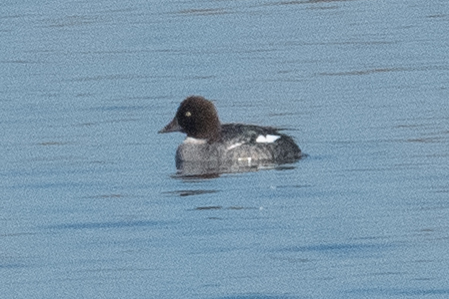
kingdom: Animalia
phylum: Chordata
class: Aves
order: Anseriformes
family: Anatidae
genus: Bucephala
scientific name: Bucephala clangula
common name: Common goldeneye
